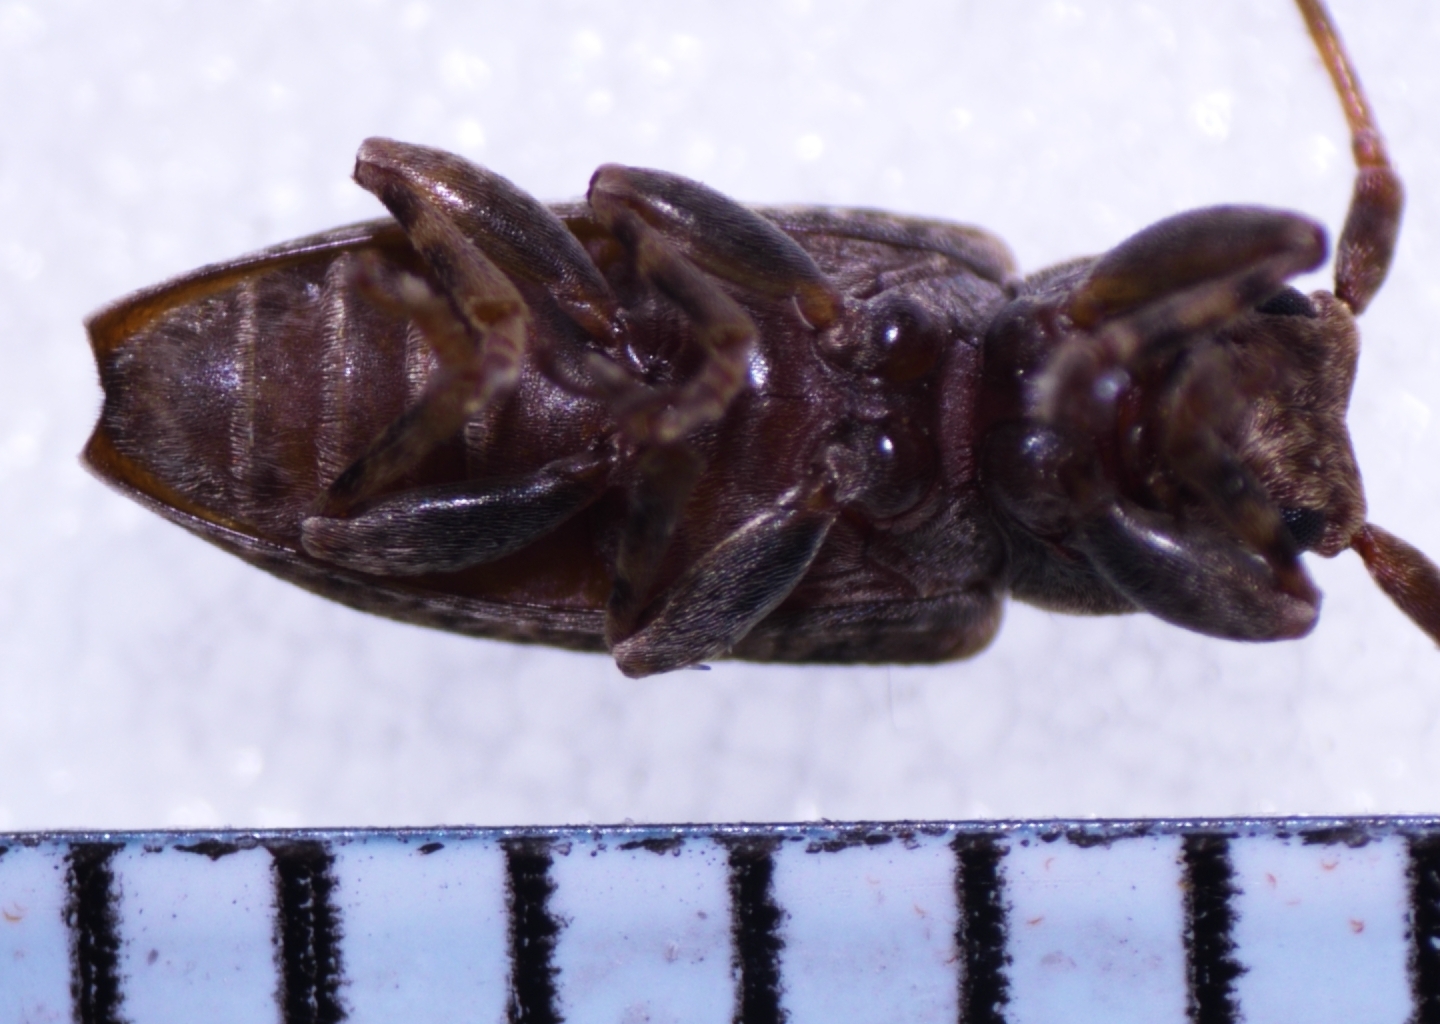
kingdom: Animalia
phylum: Arthropoda
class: Insecta
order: Coleoptera
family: Cerambycidae
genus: Pterolophia
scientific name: Pterolophia lateripicta
